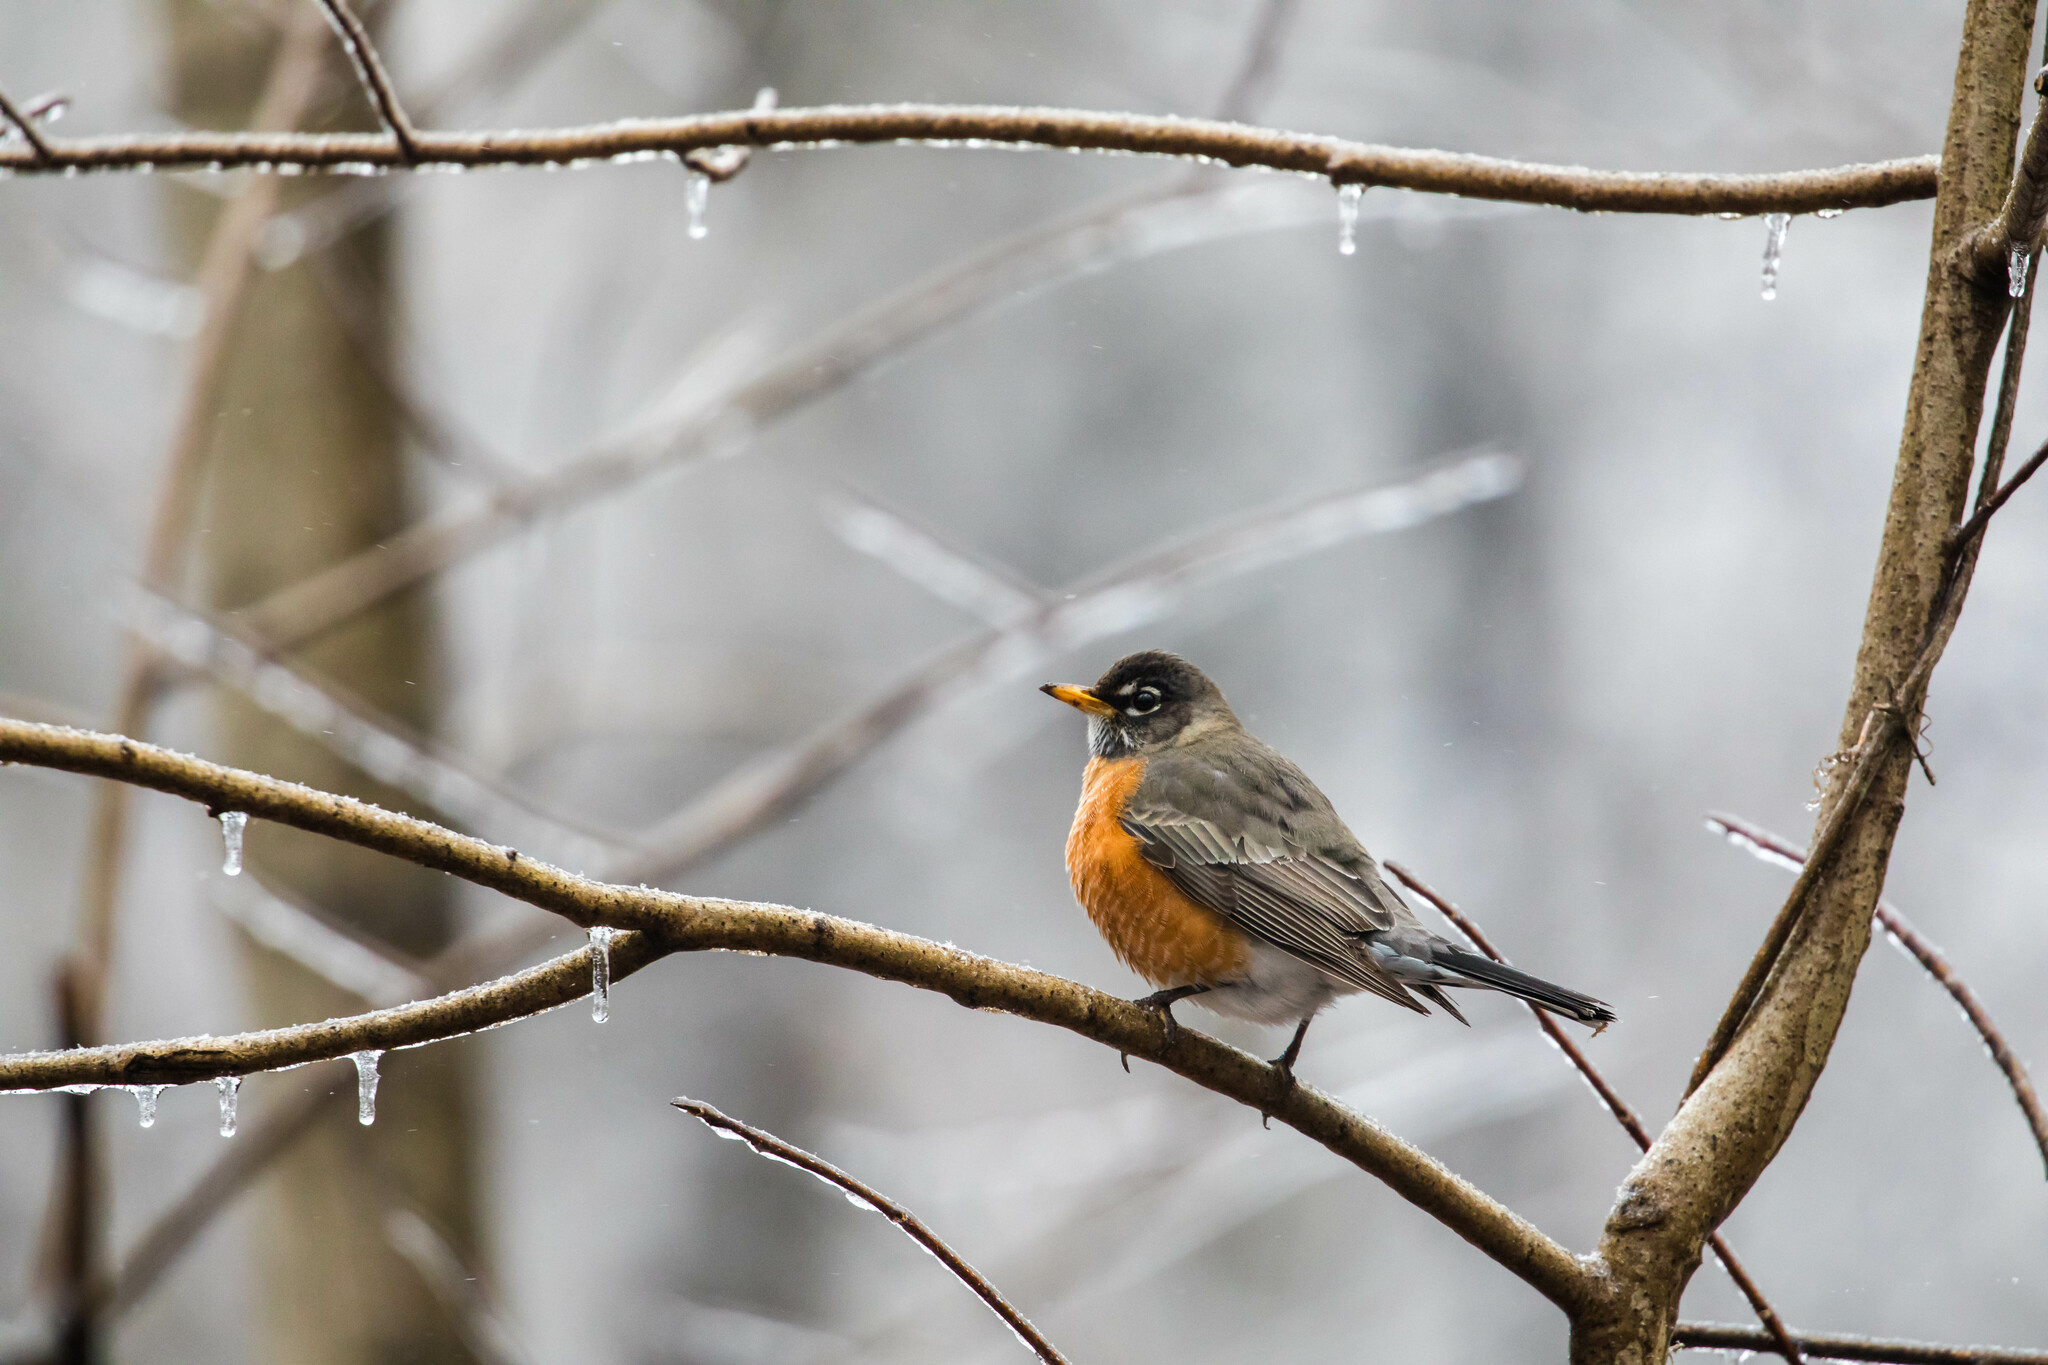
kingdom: Animalia
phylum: Chordata
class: Aves
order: Passeriformes
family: Turdidae
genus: Turdus
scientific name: Turdus migratorius
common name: American robin
